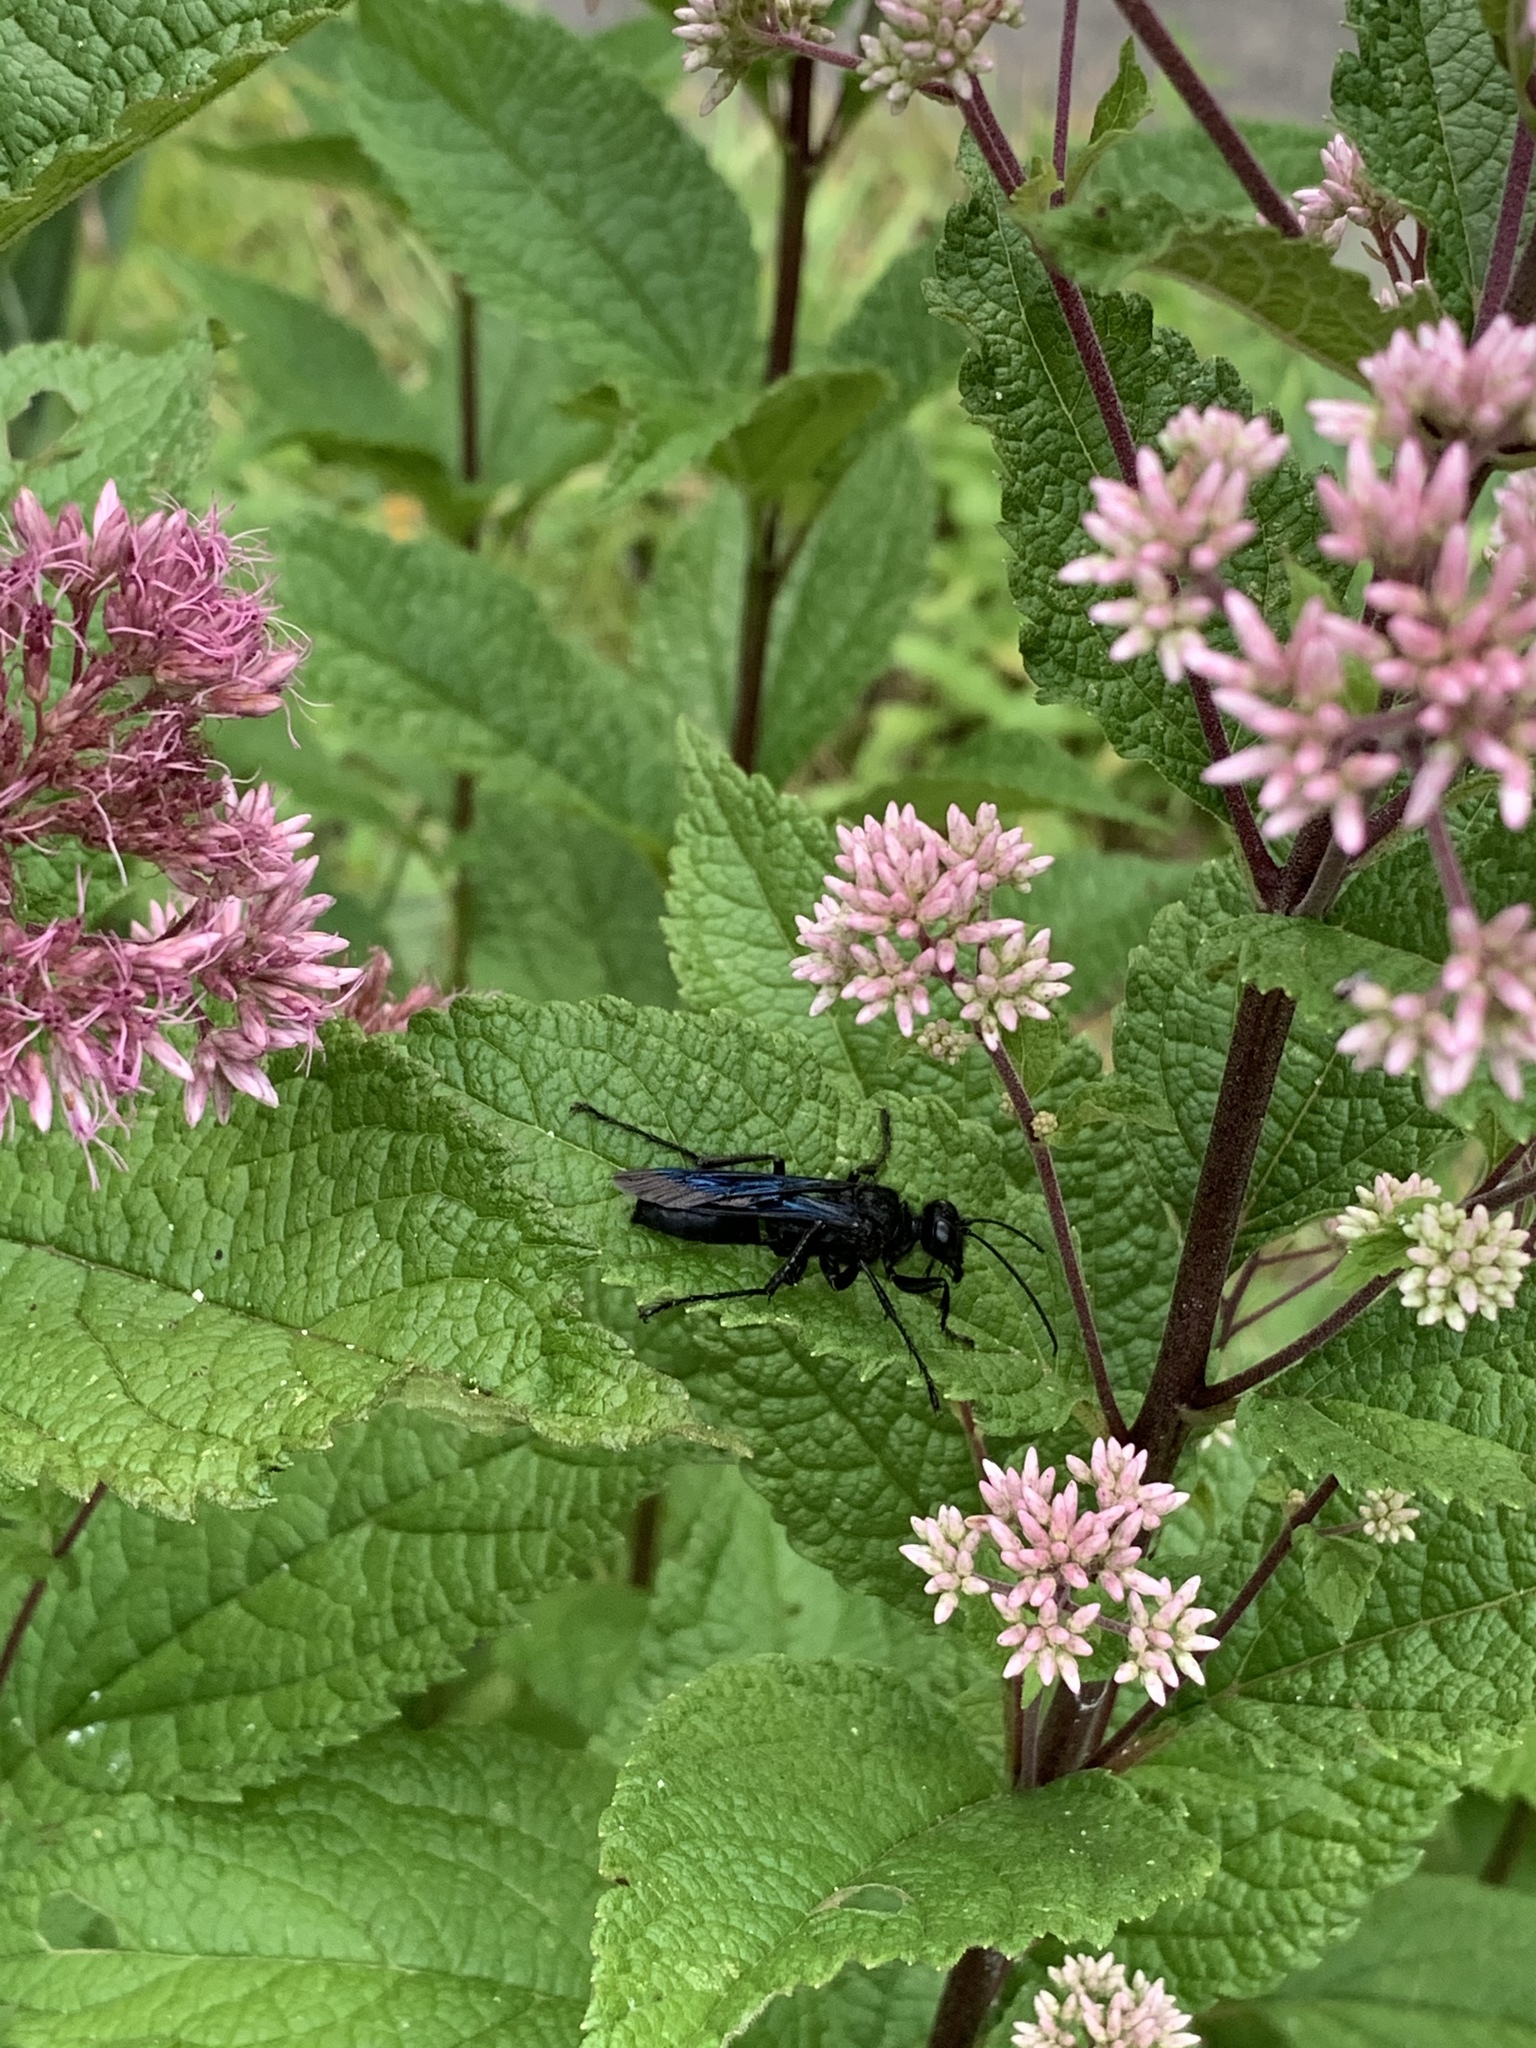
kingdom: Animalia
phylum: Arthropoda
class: Insecta
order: Hymenoptera
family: Sphecidae
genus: Sphex
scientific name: Sphex pensylvanicus
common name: Great black digger wasp
